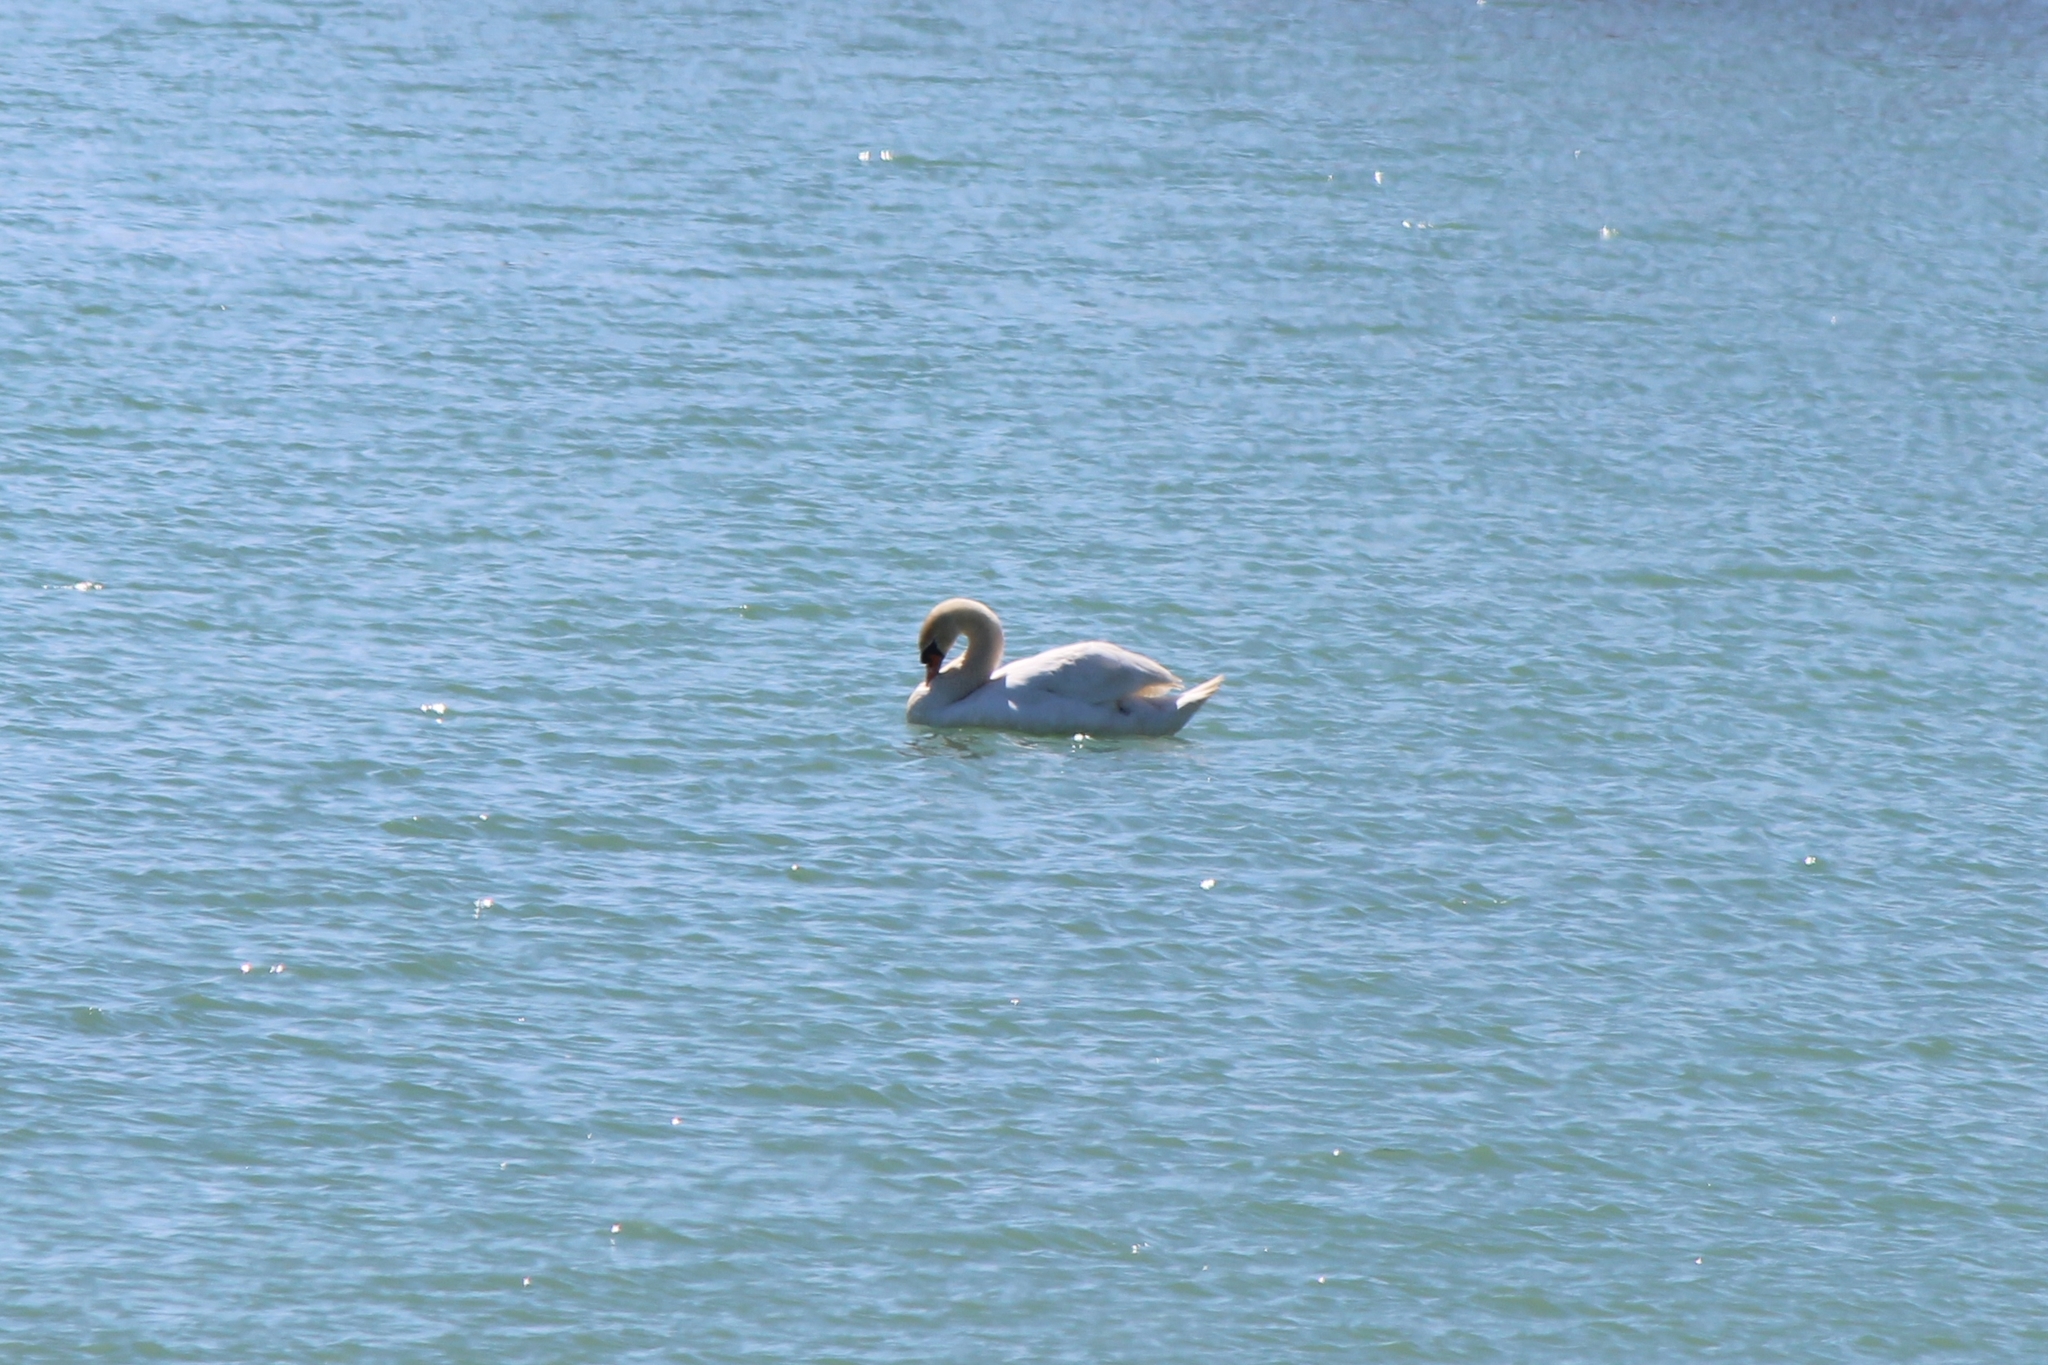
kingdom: Animalia
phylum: Chordata
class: Aves
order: Anseriformes
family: Anatidae
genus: Cygnus
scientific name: Cygnus olor
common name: Mute swan
